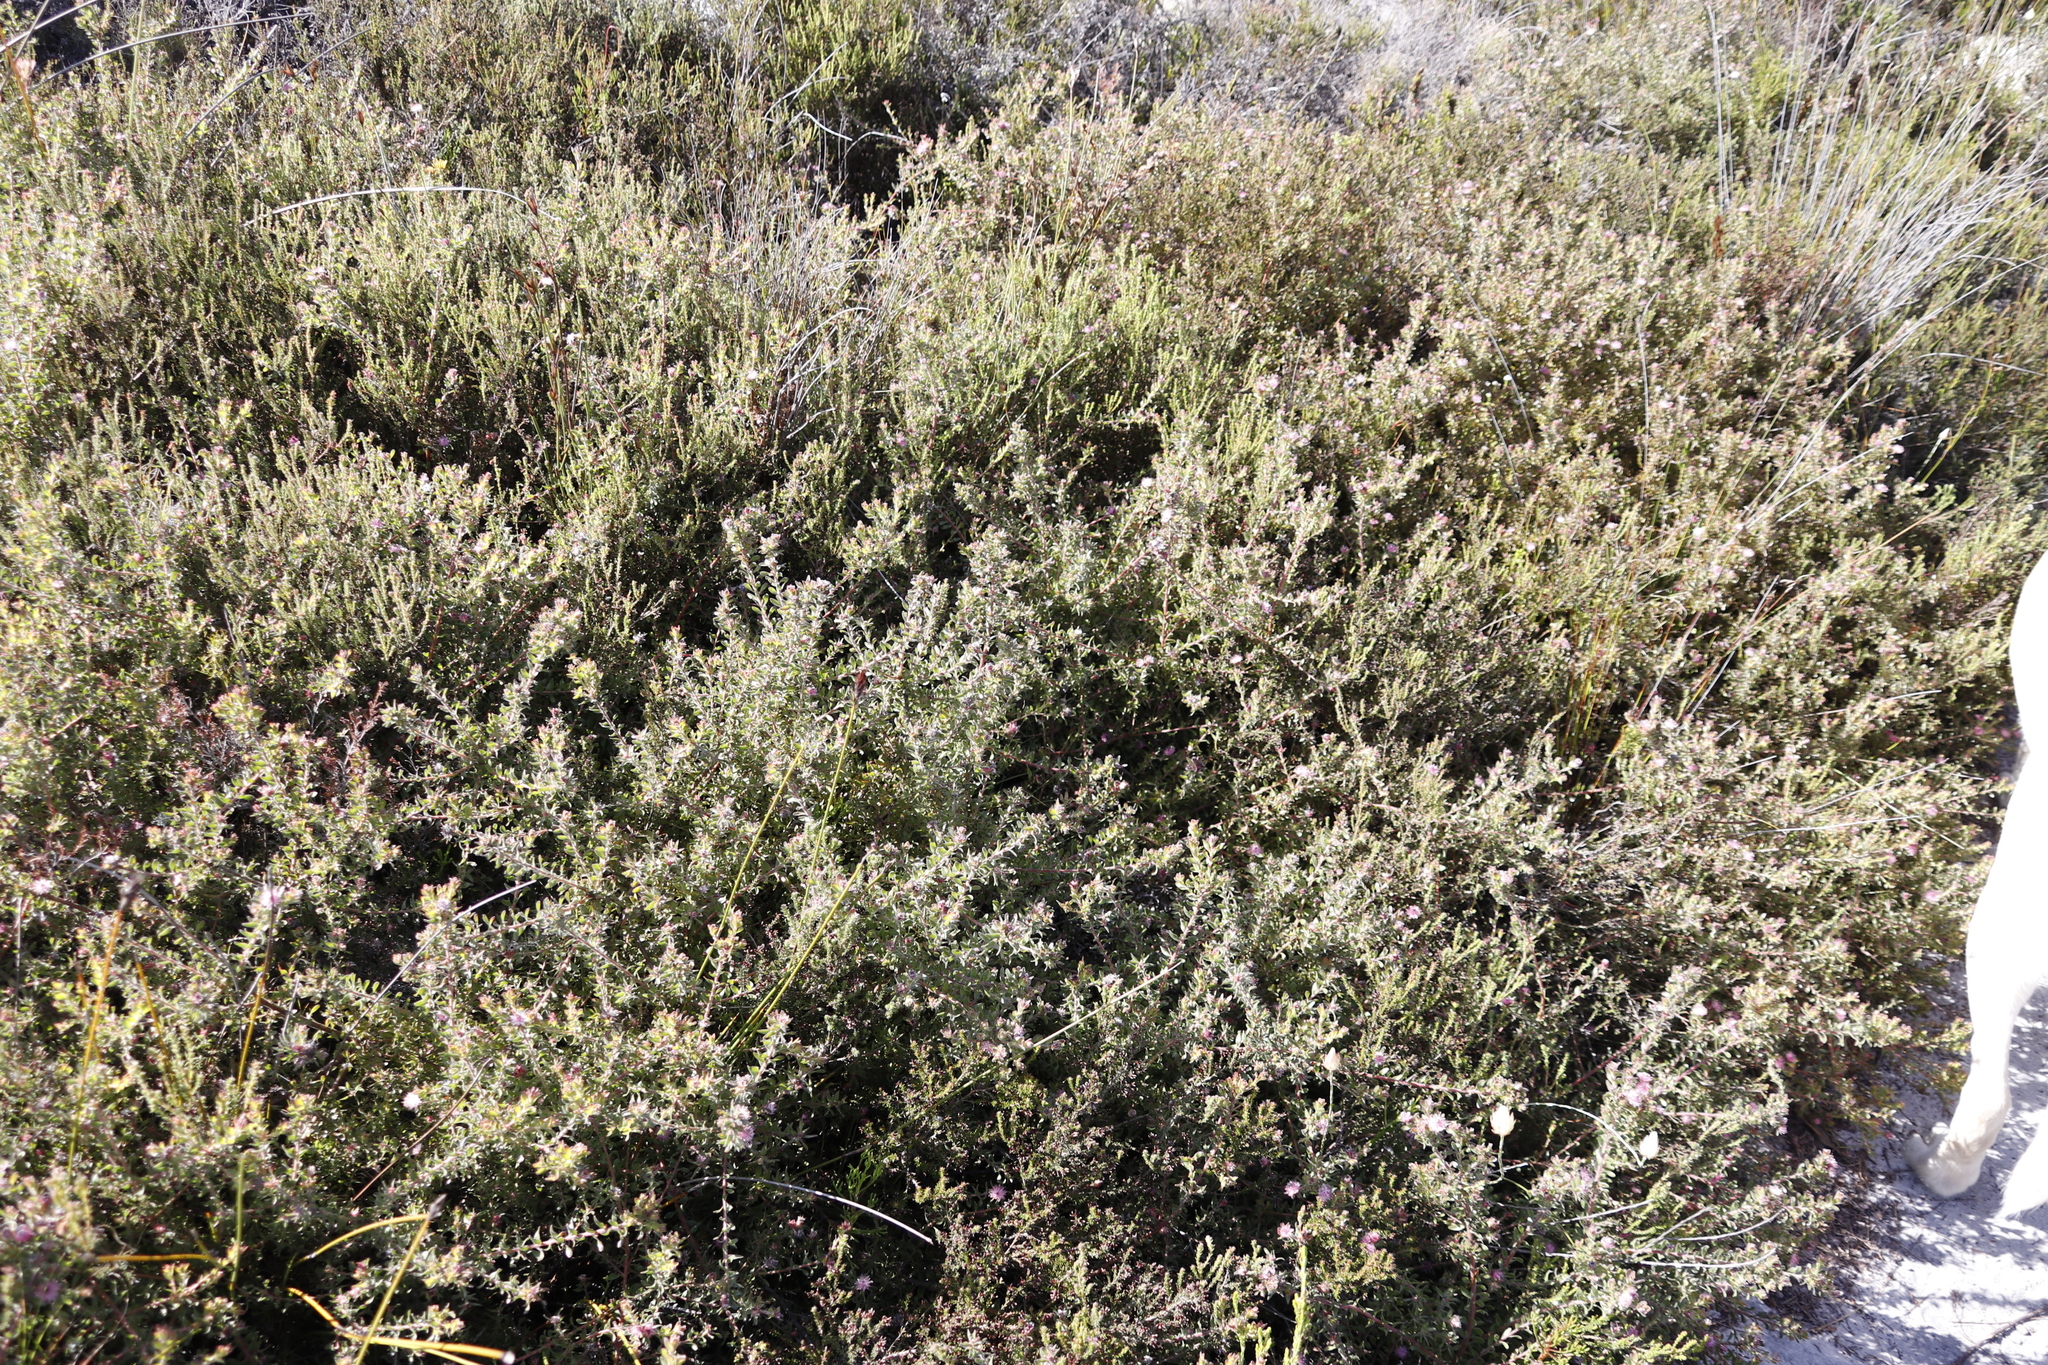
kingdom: Plantae
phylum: Tracheophyta
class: Magnoliopsida
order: Proteales
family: Proteaceae
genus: Diastella
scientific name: Diastella divaricata
